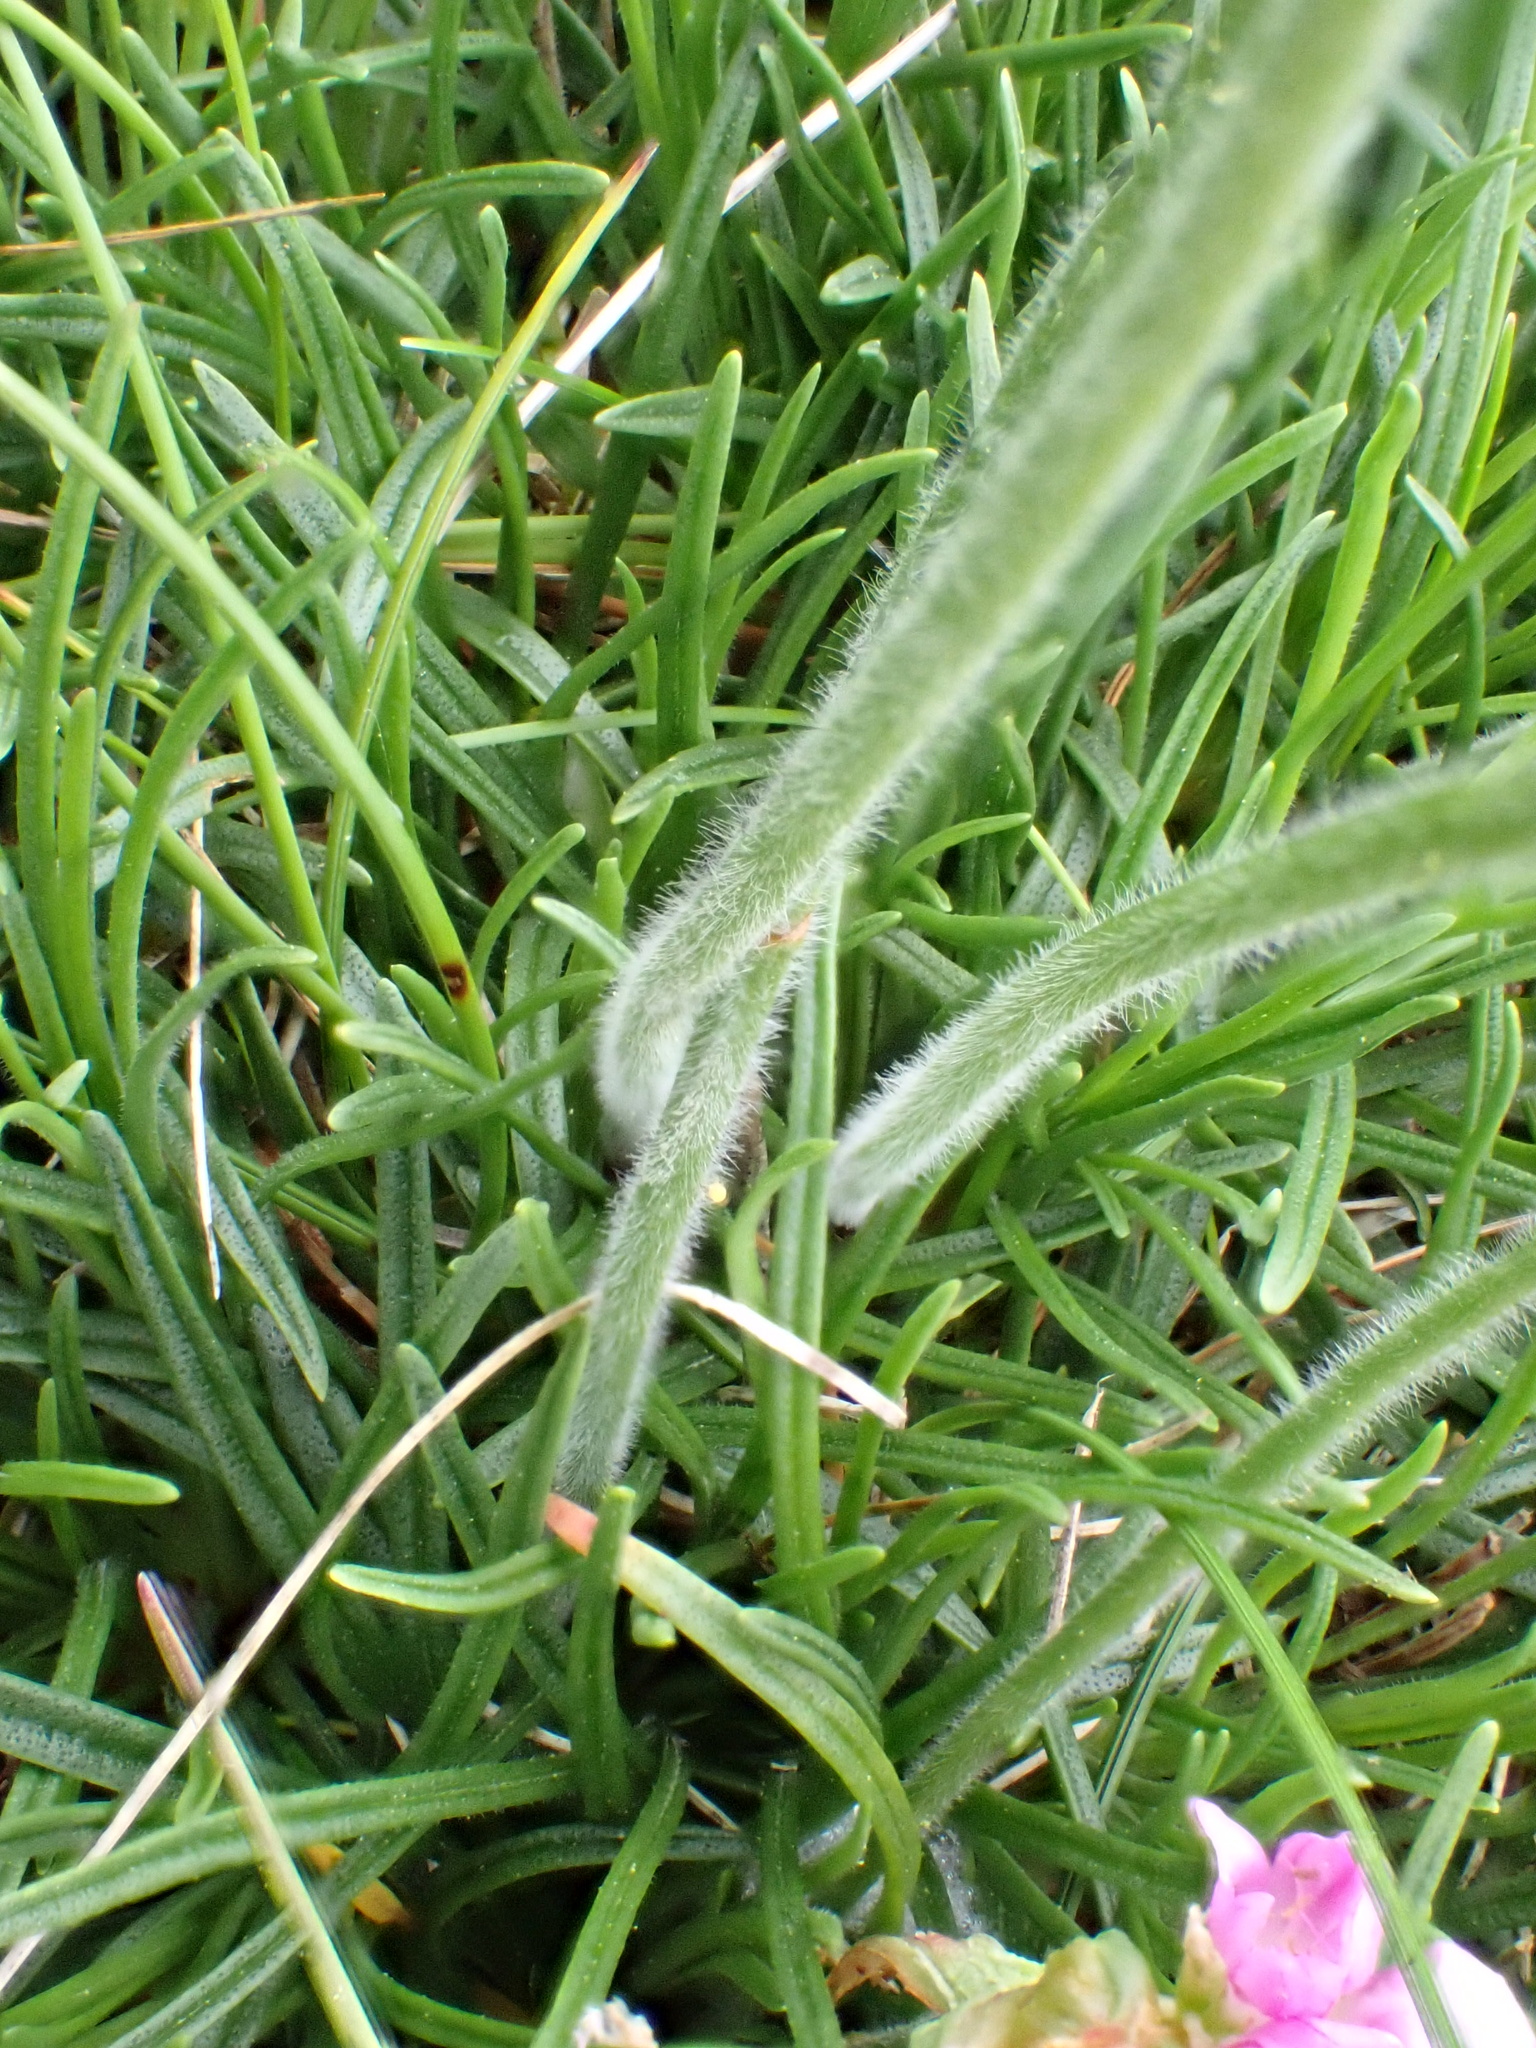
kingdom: Plantae
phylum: Tracheophyta
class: Magnoliopsida
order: Caryophyllales
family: Plumbaginaceae
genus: Armeria
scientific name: Armeria maritima
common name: Thrift
